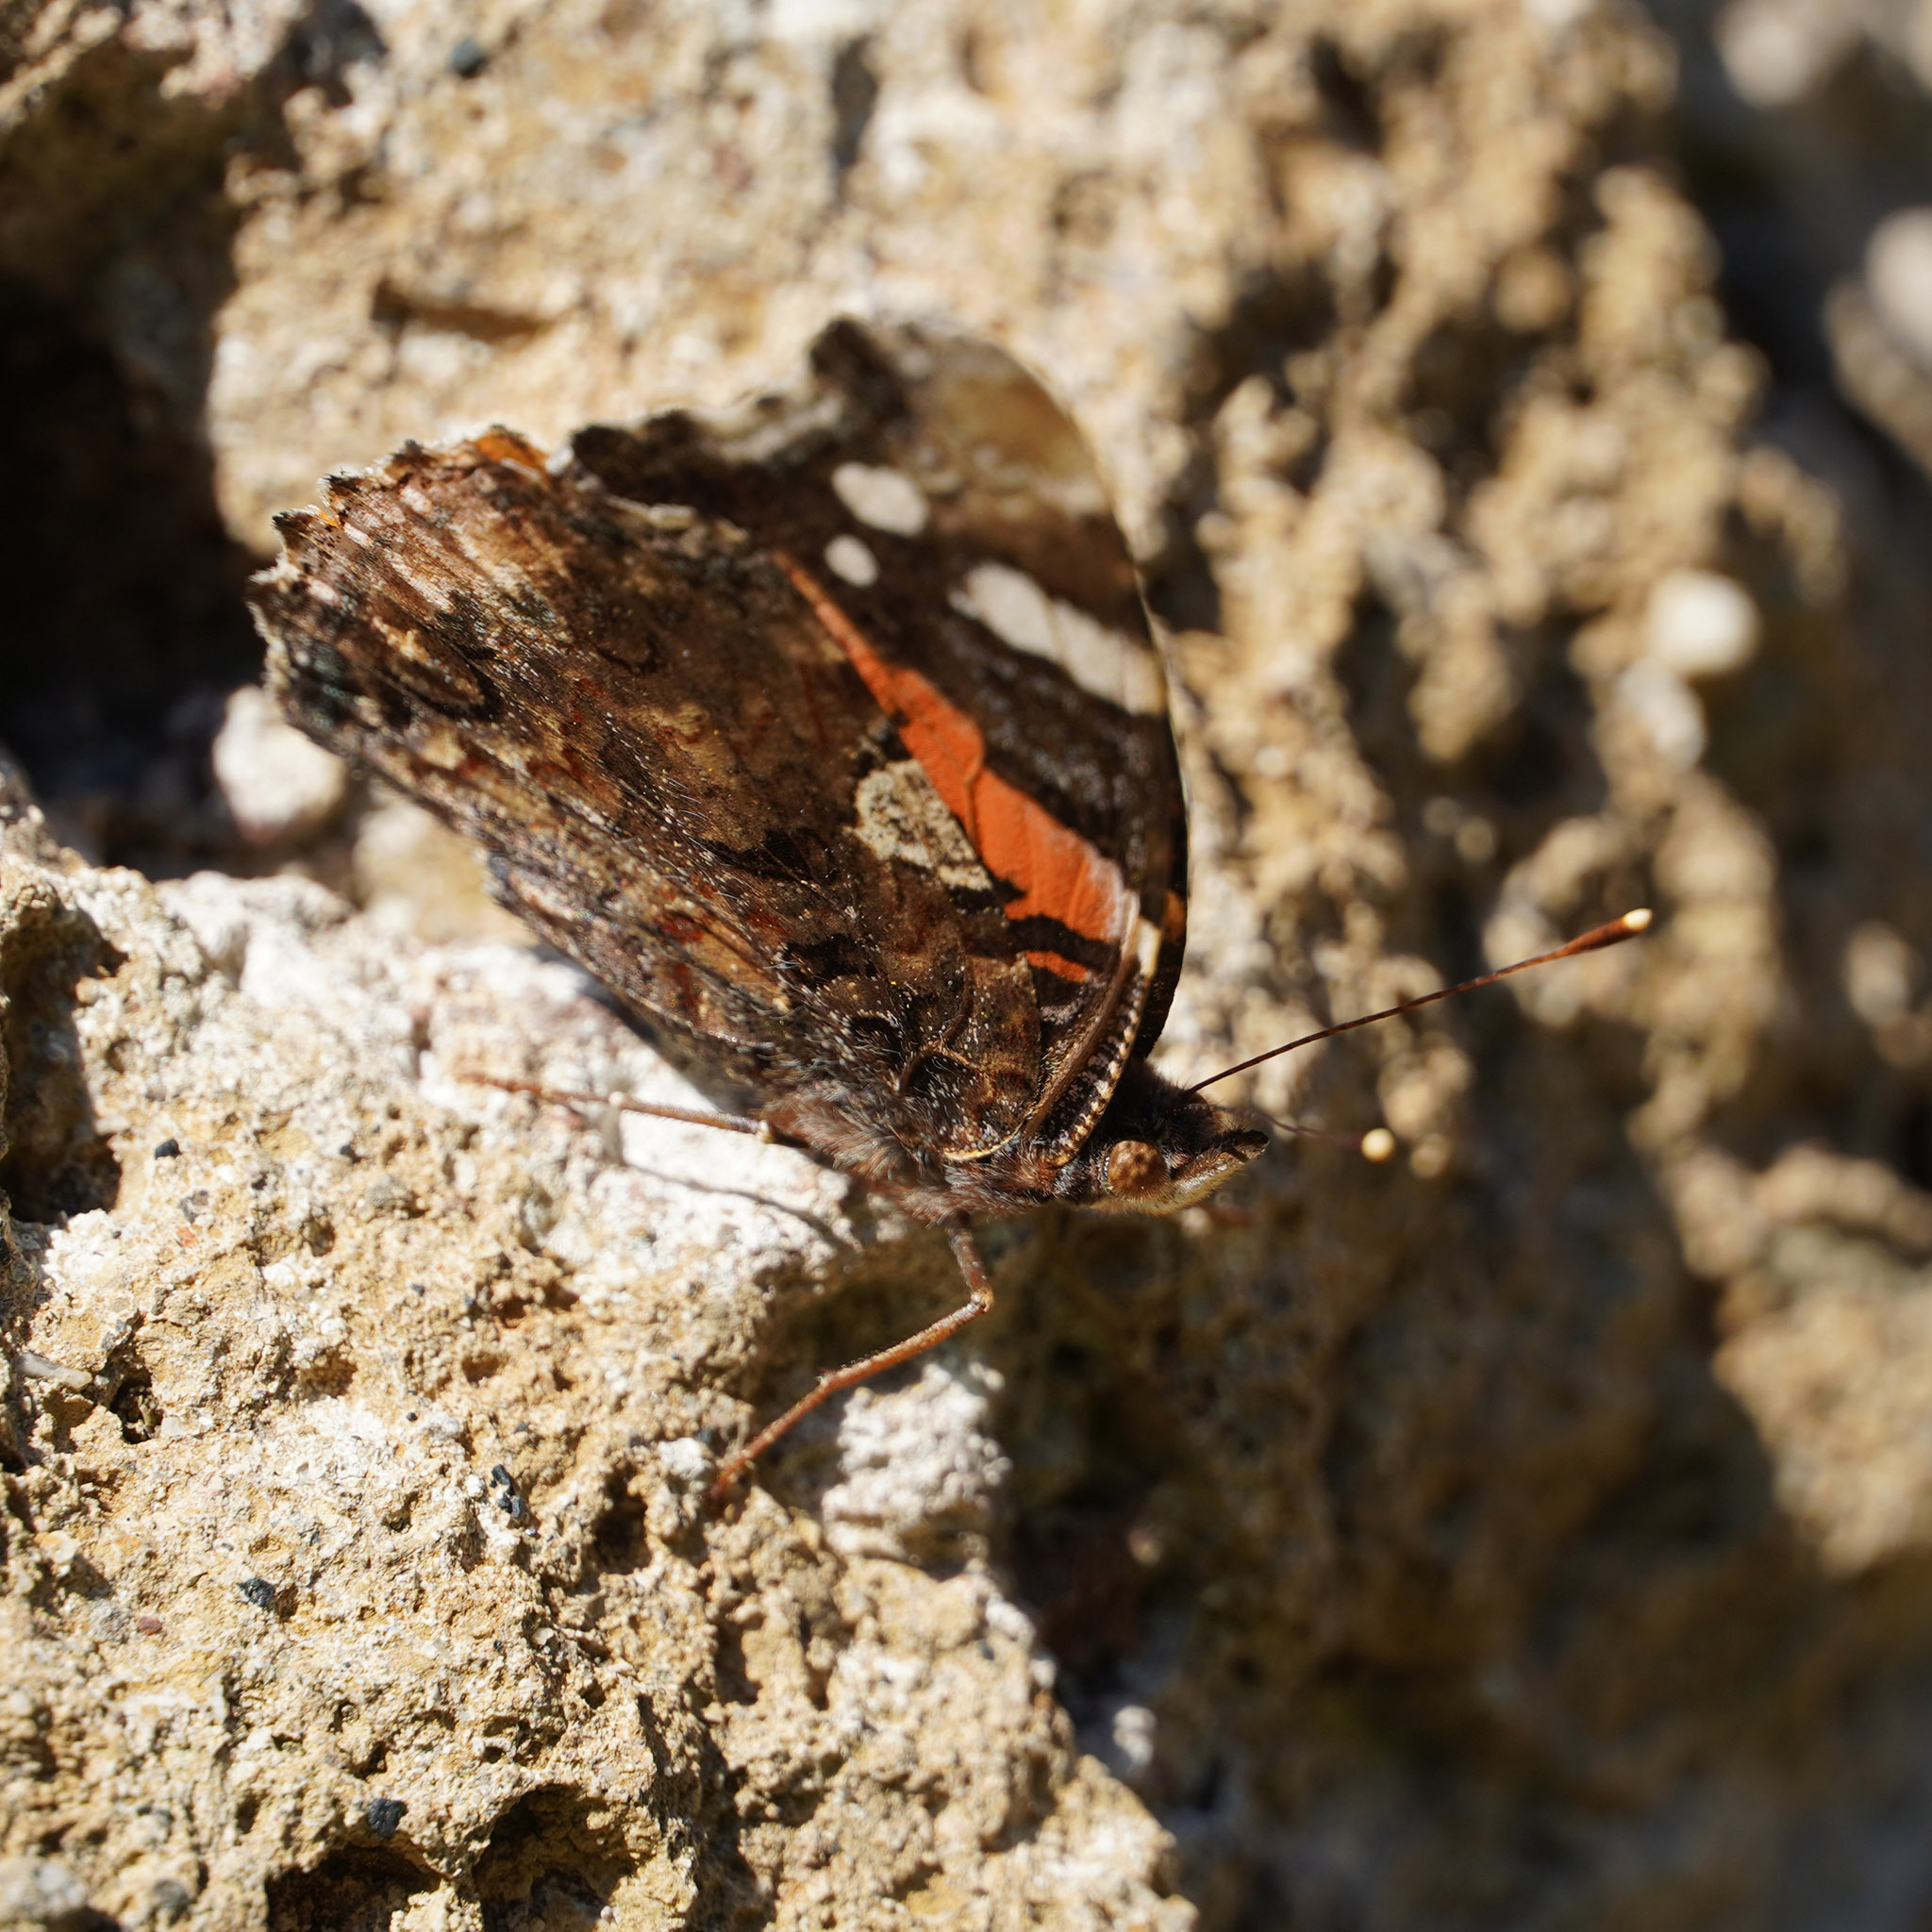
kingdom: Animalia
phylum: Arthropoda
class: Insecta
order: Lepidoptera
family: Nymphalidae
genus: Vanessa
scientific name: Vanessa atalanta
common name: Red admiral
